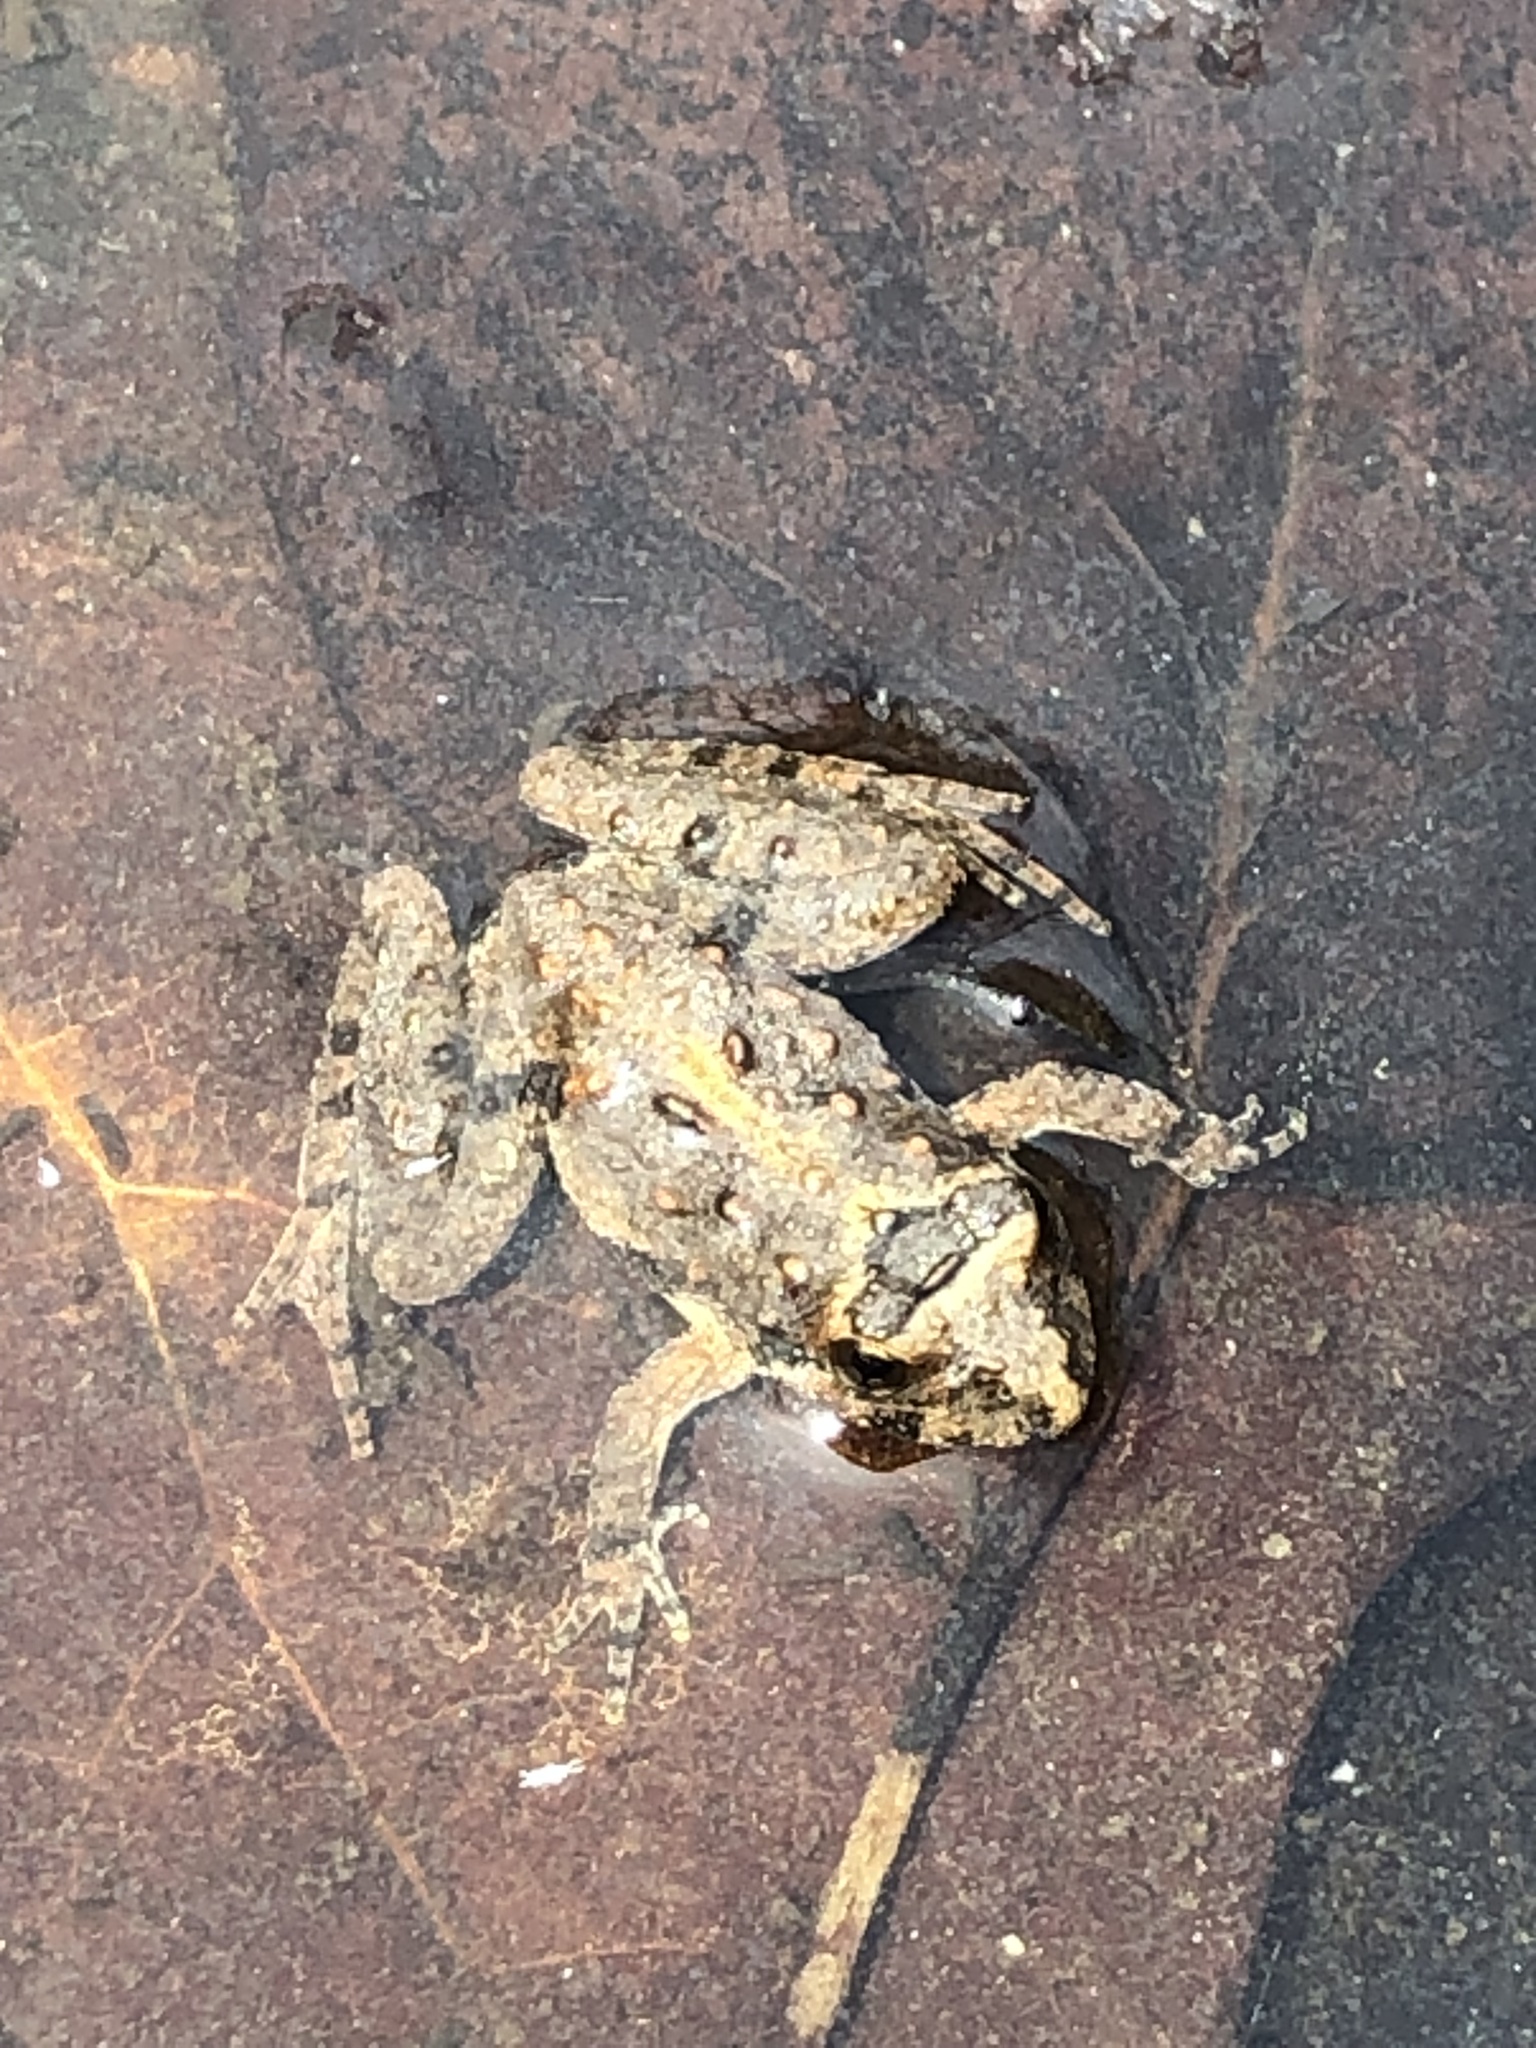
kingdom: Animalia
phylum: Chordata
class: Amphibia
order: Anura
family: Hylidae
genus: Acris
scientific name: Acris crepitans
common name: Northern cricket frog
